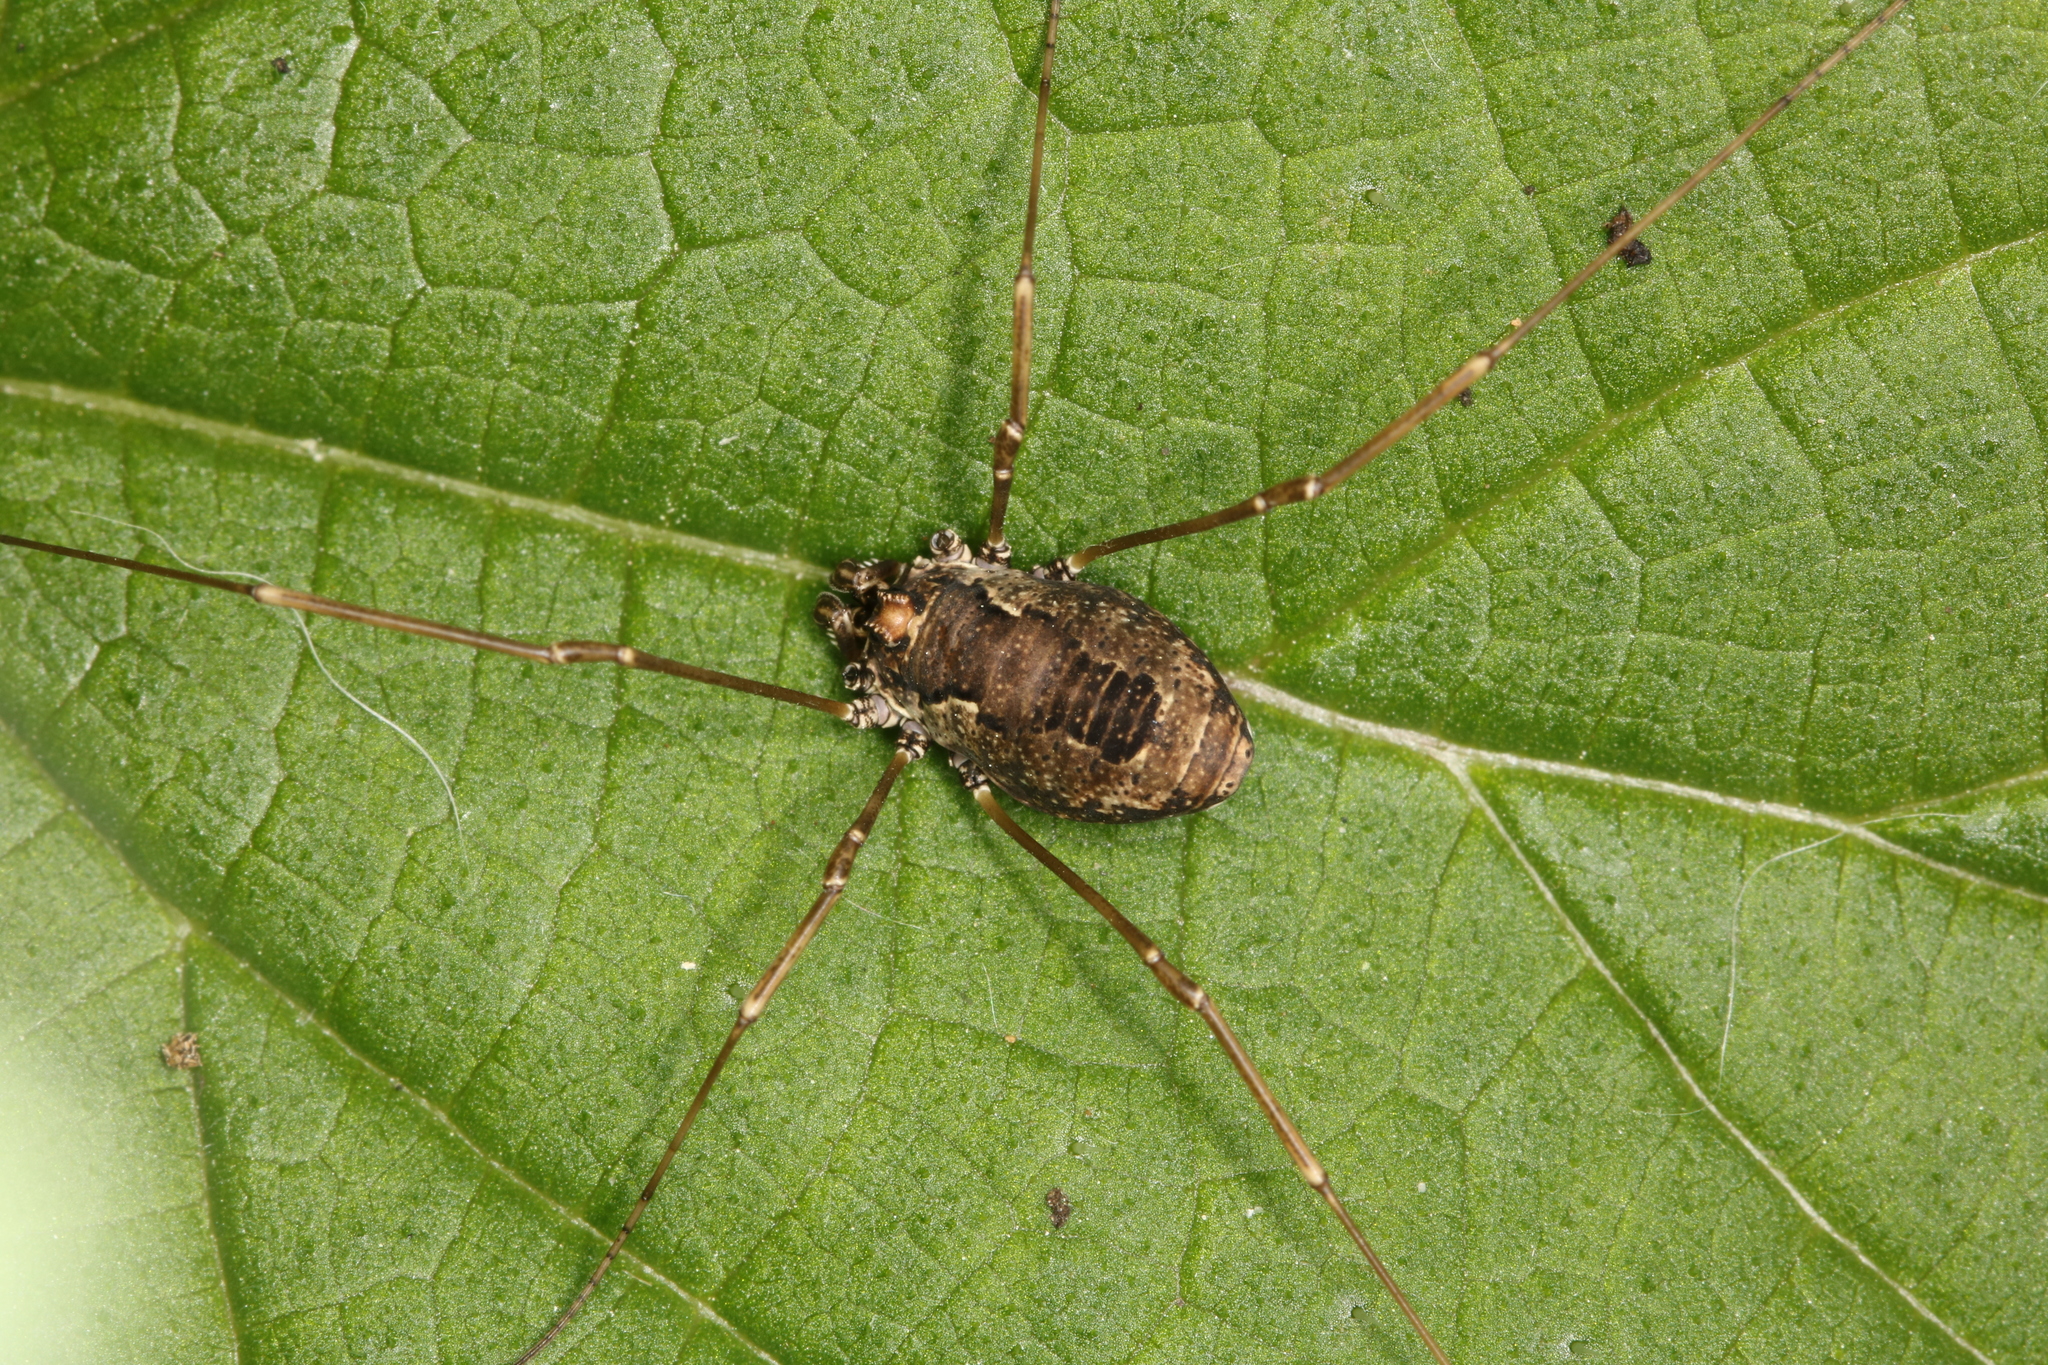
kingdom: Animalia
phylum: Arthropoda
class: Arachnida
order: Opiliones
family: Phalangiidae
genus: Platybunus
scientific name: Platybunus pinetorum
